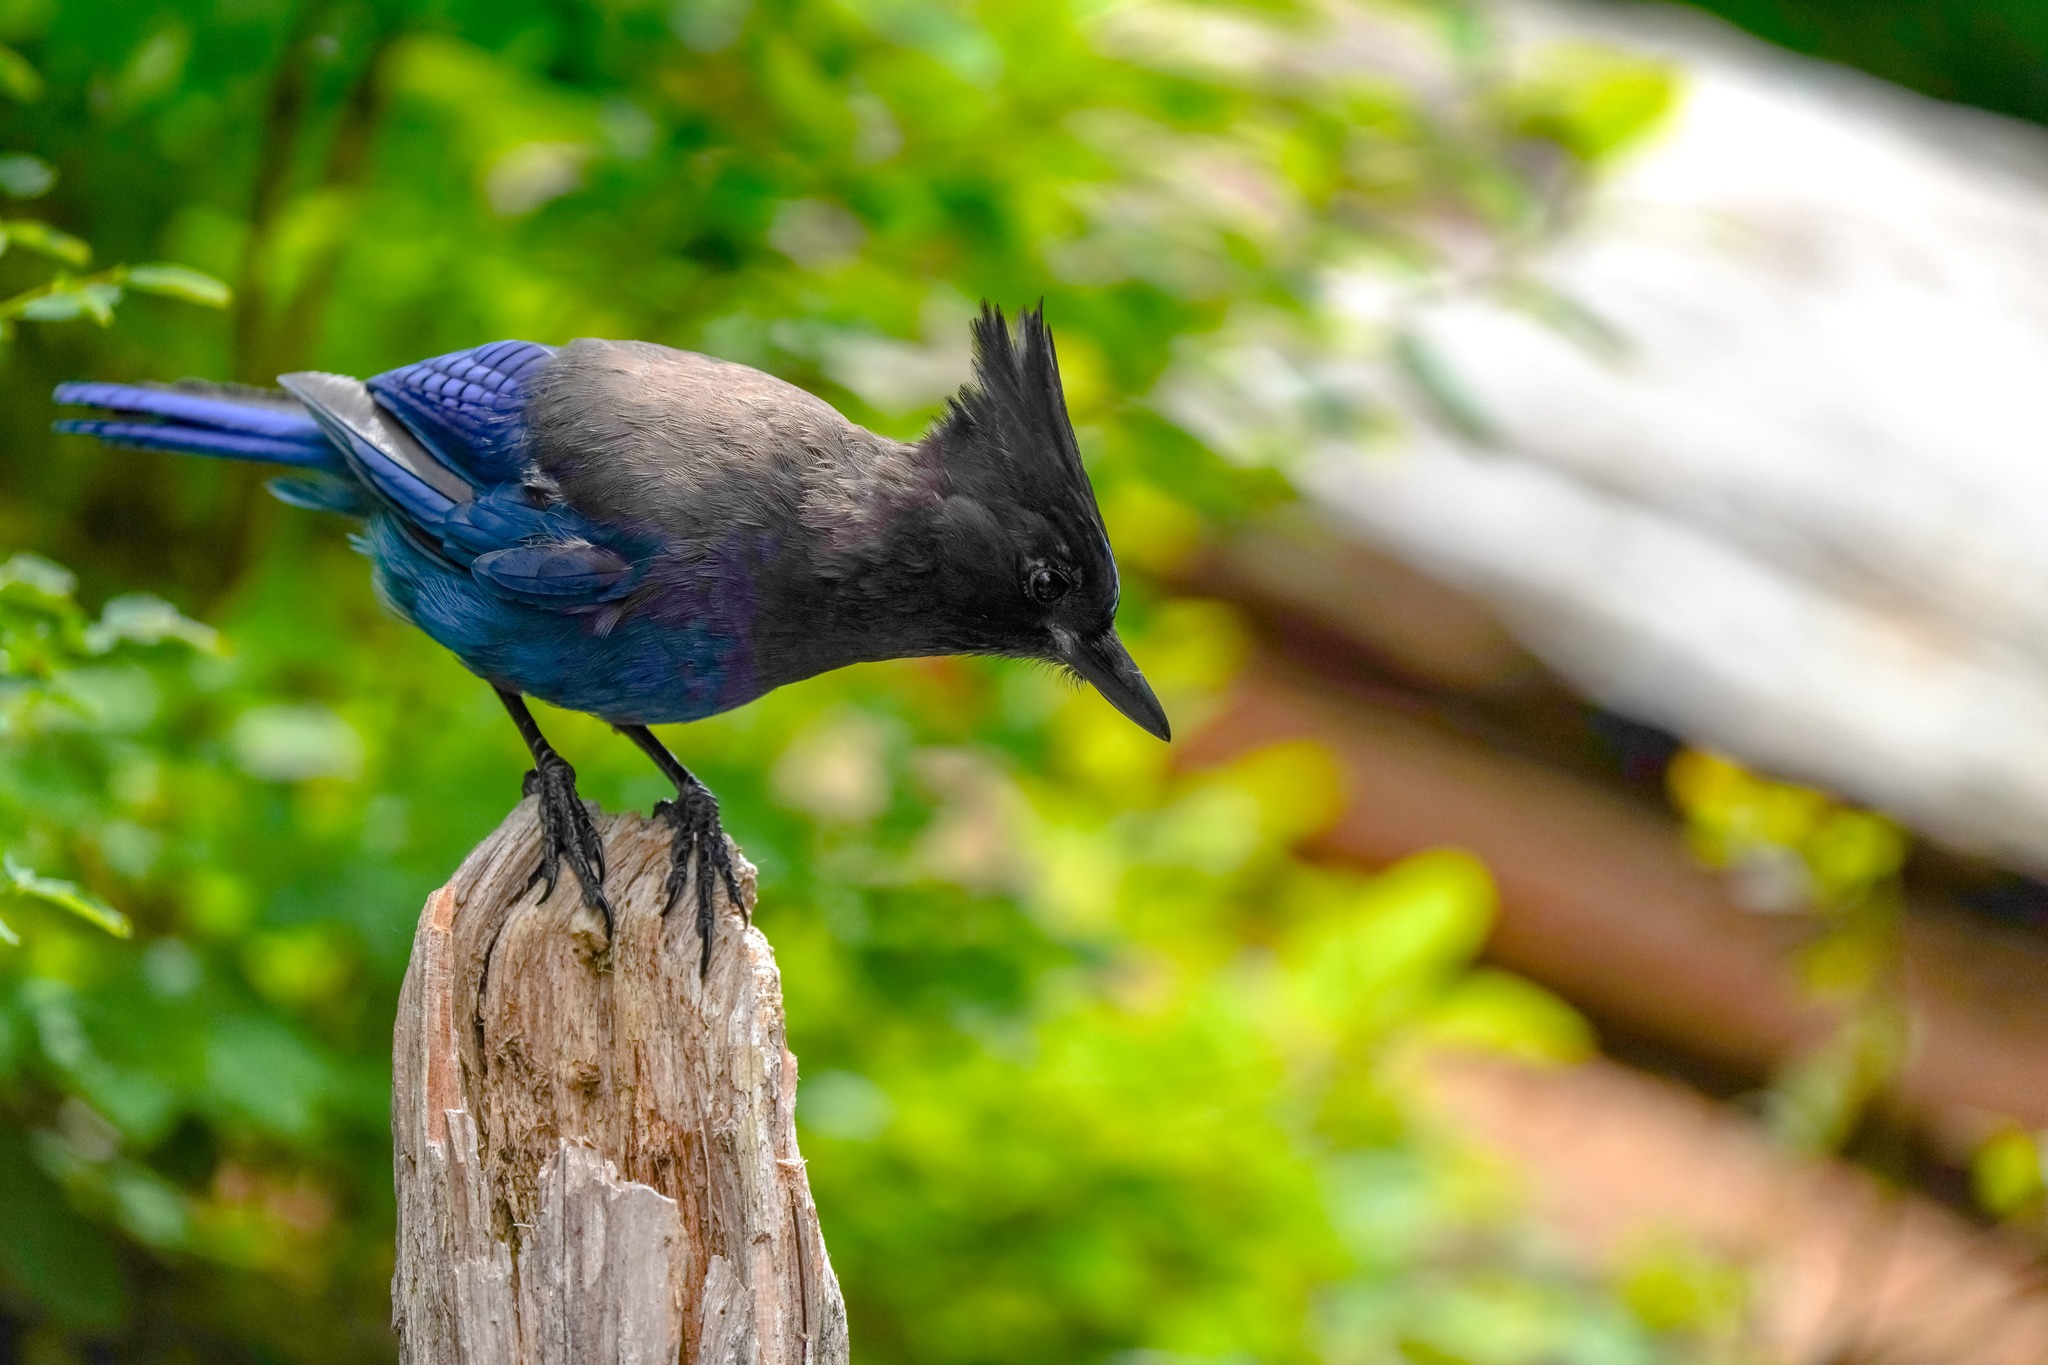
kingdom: Animalia
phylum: Chordata
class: Aves
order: Passeriformes
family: Corvidae
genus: Cyanocitta
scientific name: Cyanocitta stelleri
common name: Steller's jay
